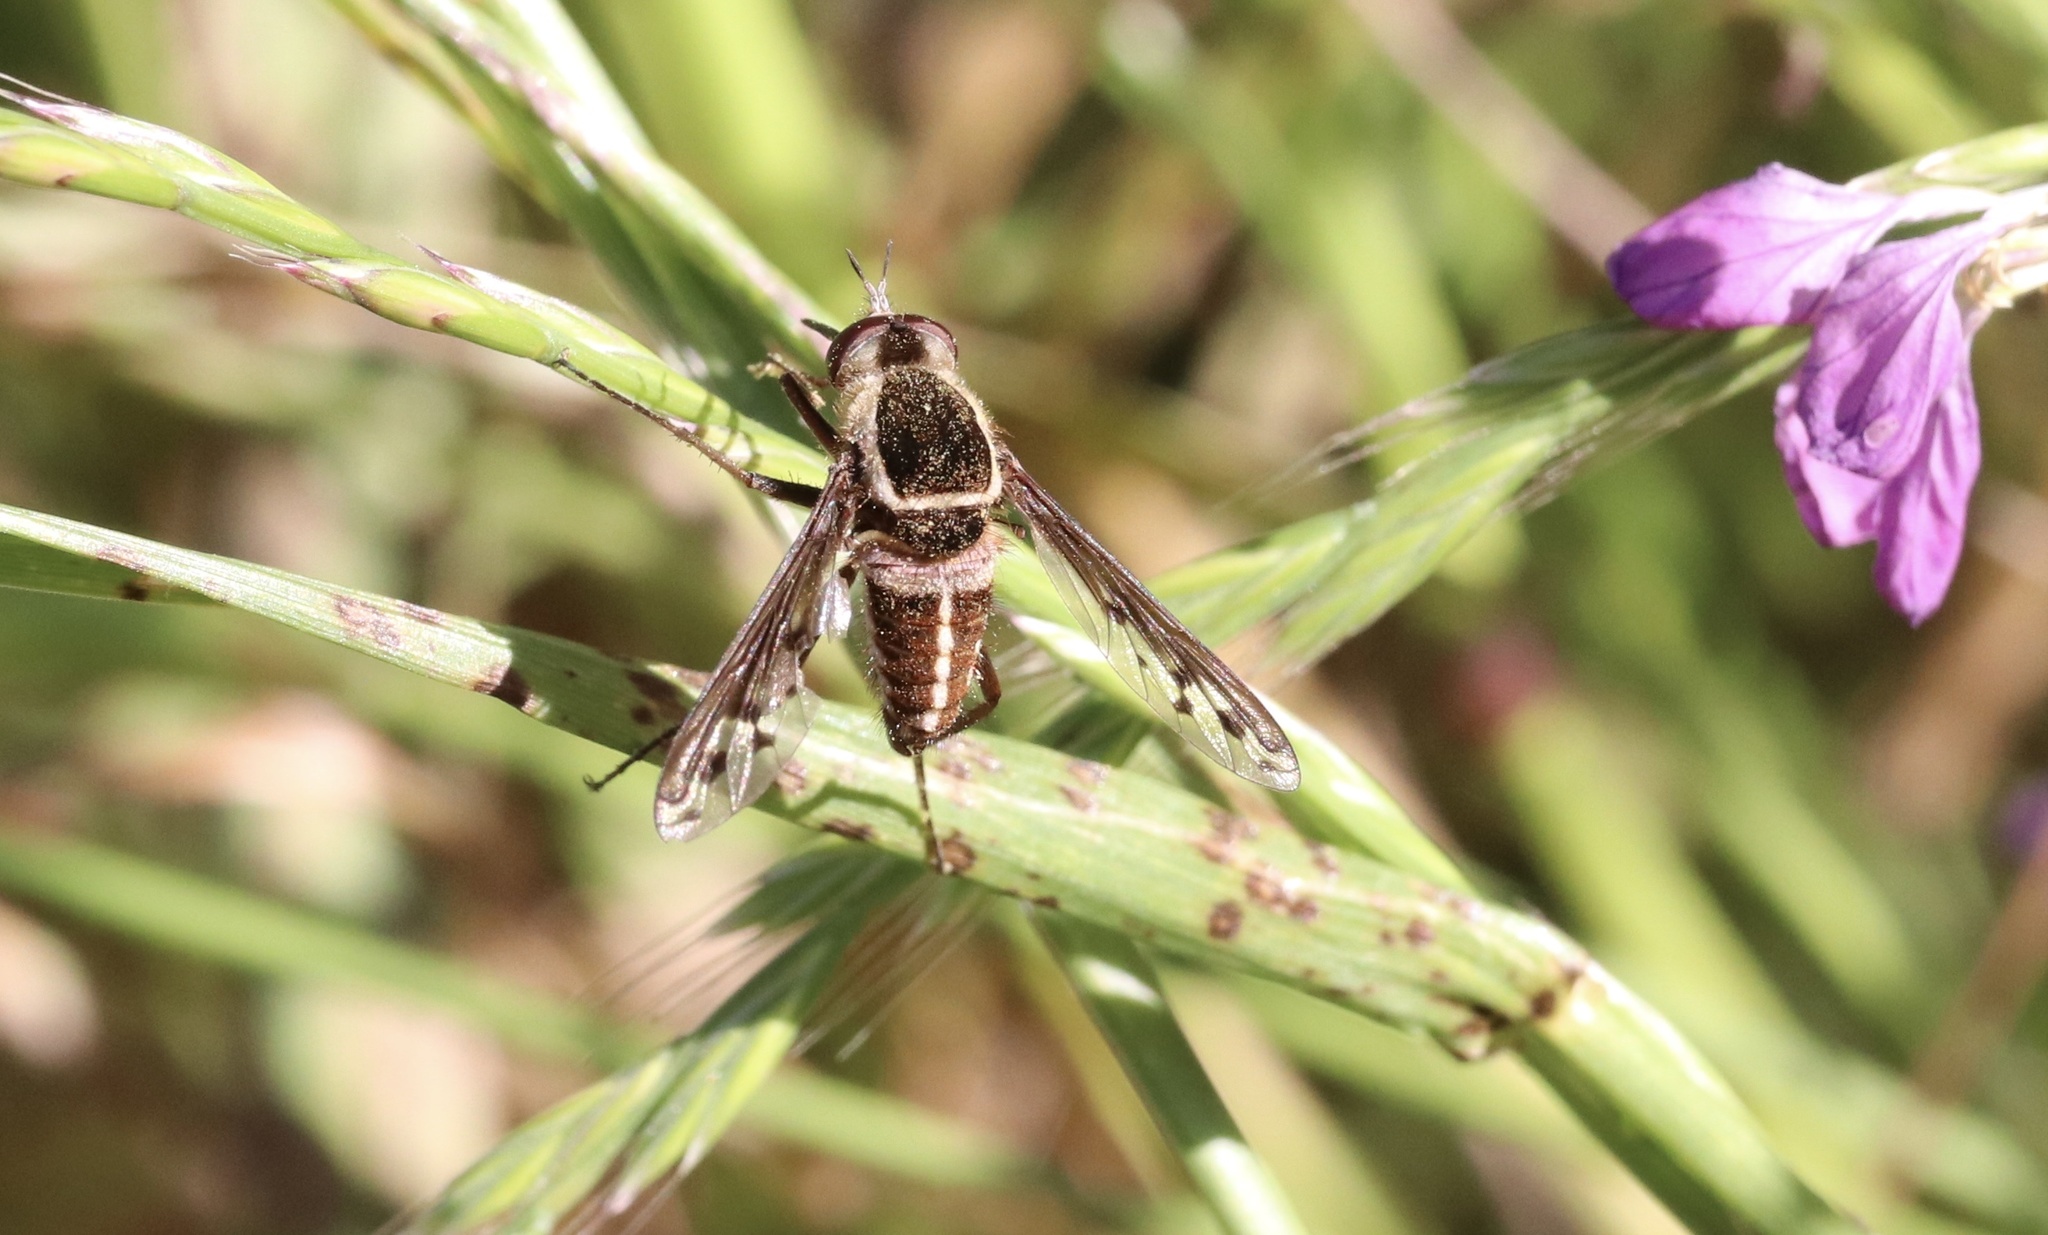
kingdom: Animalia
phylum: Arthropoda
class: Insecta
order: Diptera
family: Bombyliidae
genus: Acrophthalmyda
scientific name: Acrophthalmyda paulseni
